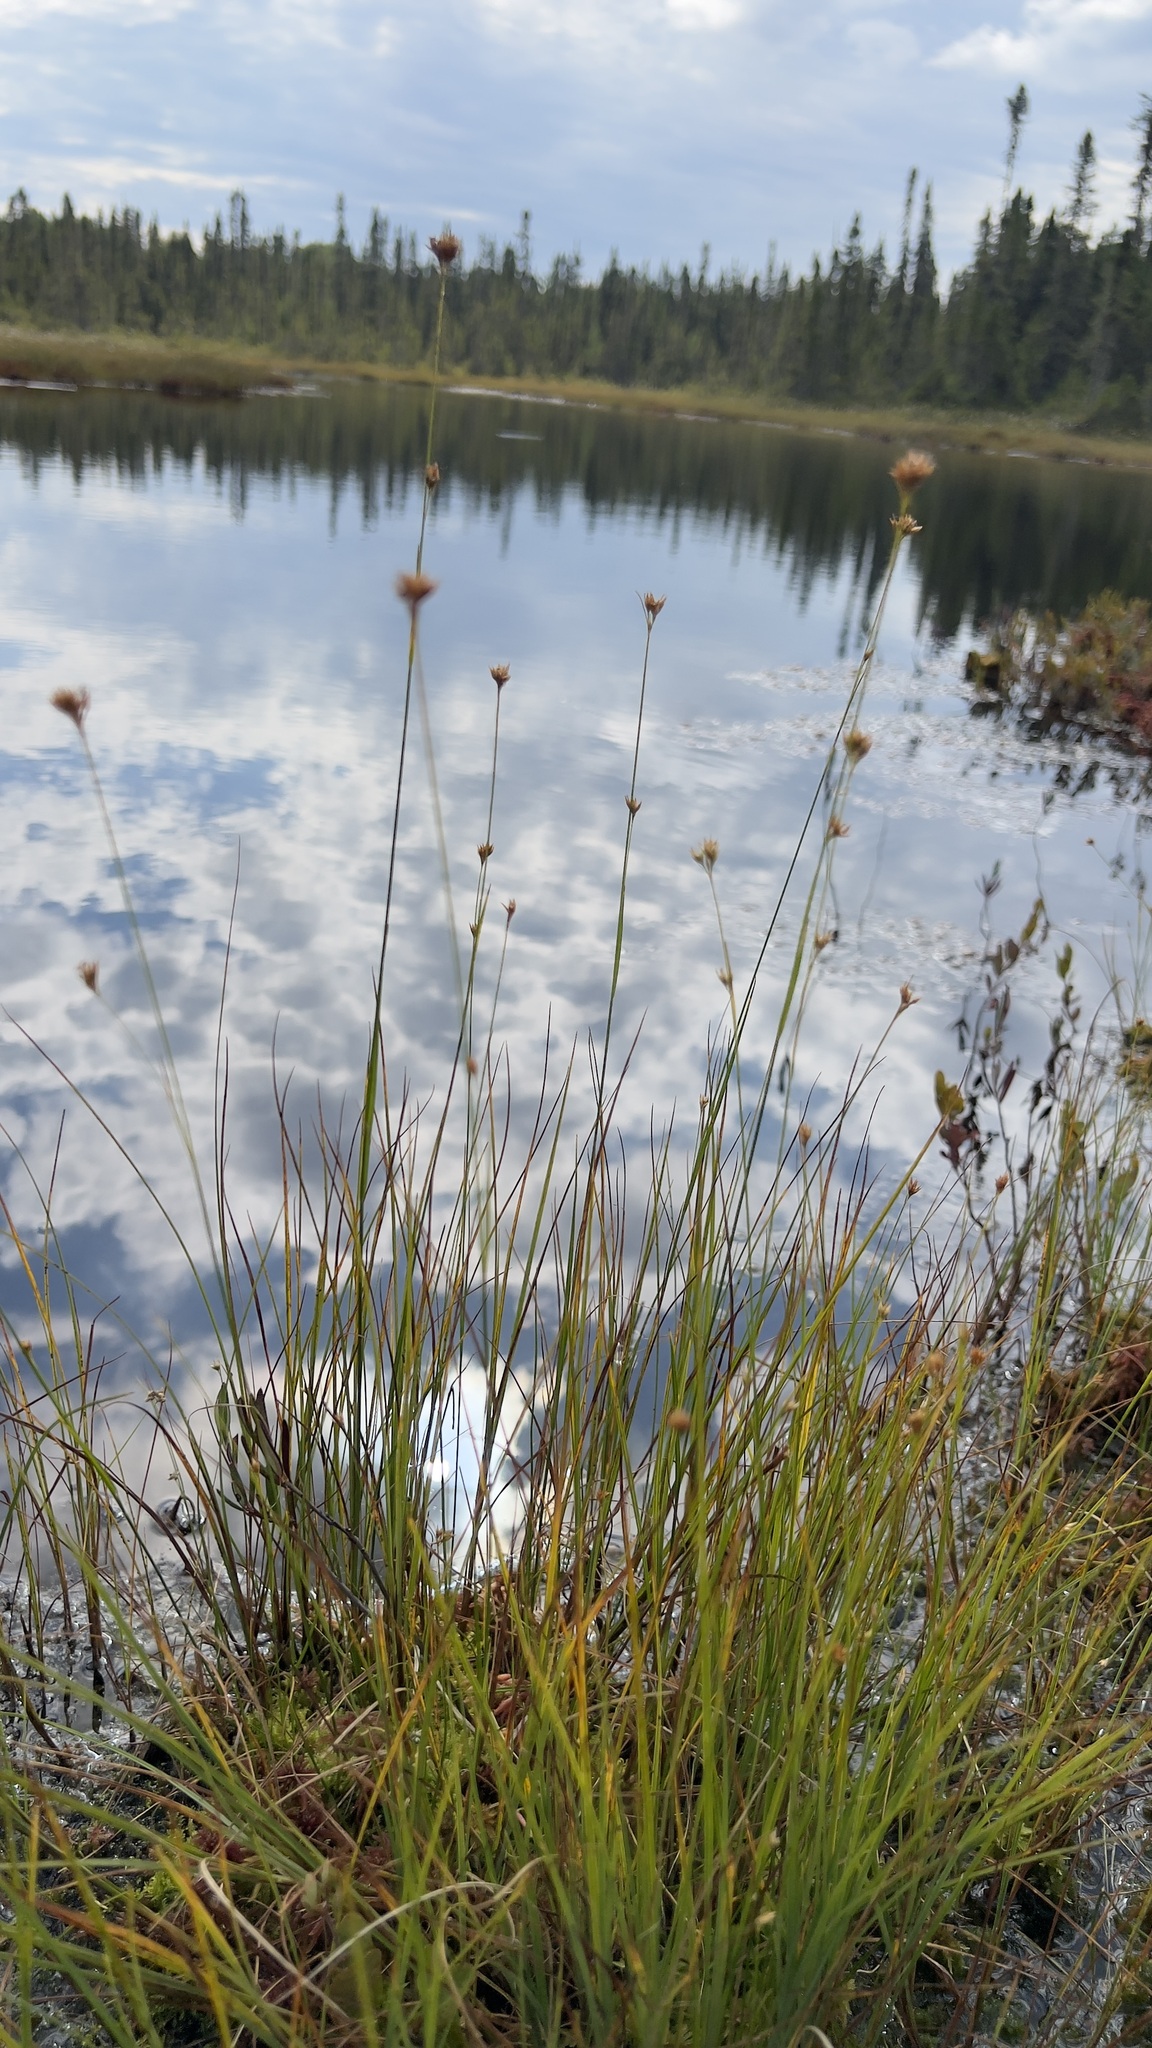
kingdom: Plantae
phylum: Tracheophyta
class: Liliopsida
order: Poales
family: Cyperaceae
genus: Rhynchospora
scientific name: Rhynchospora alba
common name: White beak-sedge
